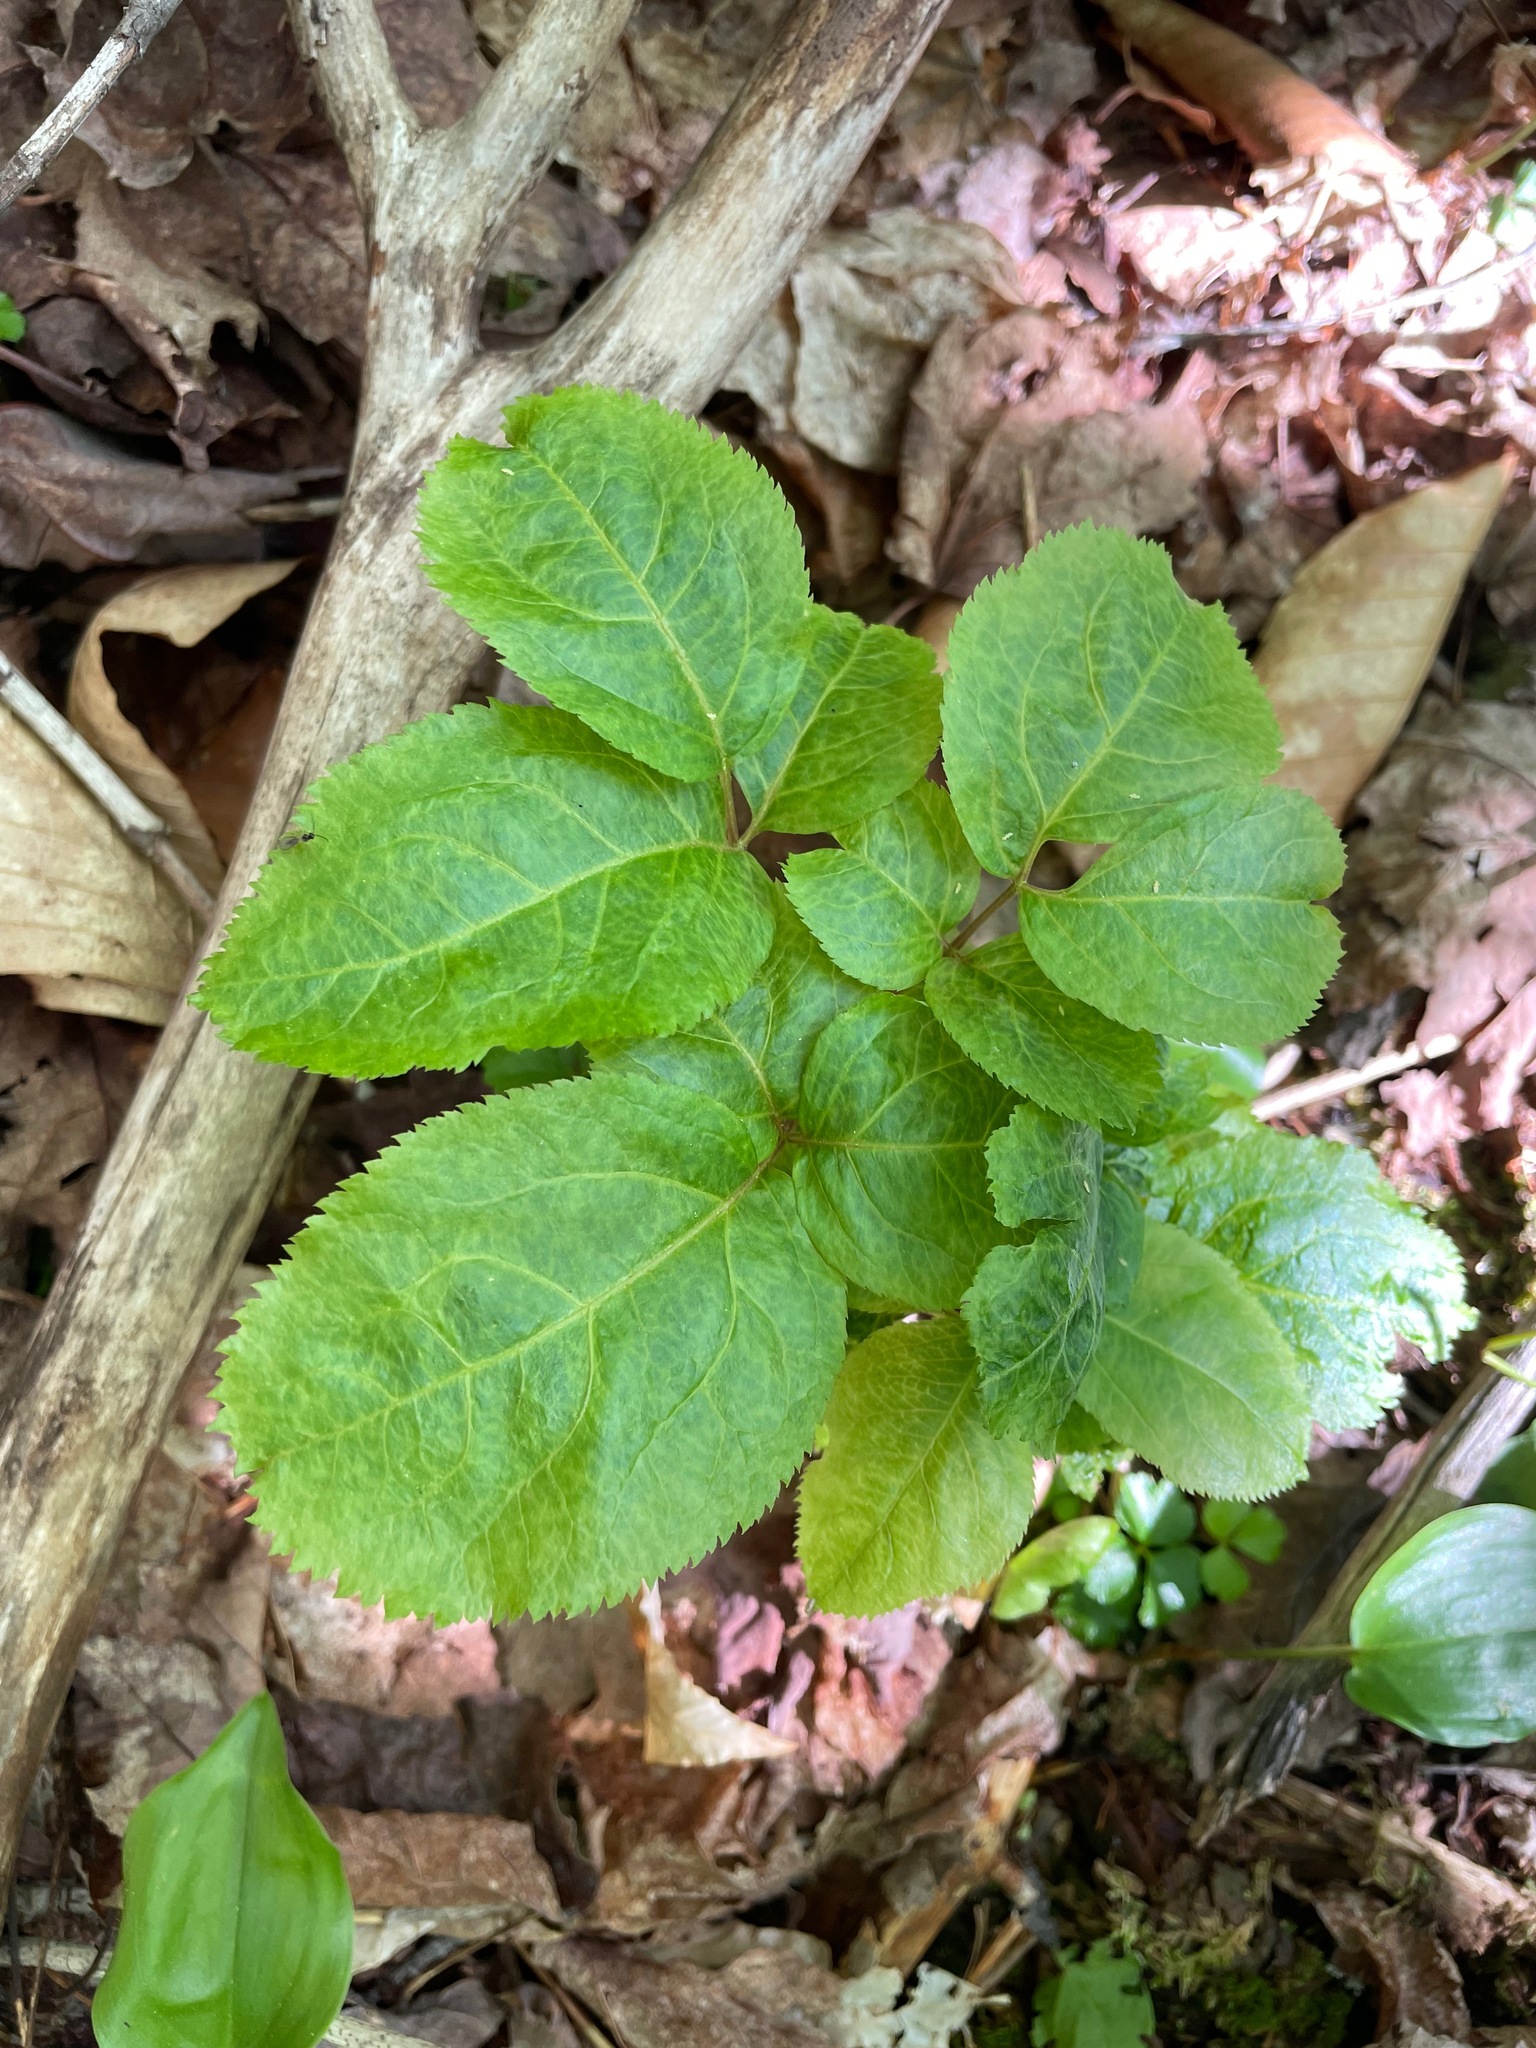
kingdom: Plantae
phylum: Tracheophyta
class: Magnoliopsida
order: Apiales
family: Araliaceae
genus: Aralia
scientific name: Aralia nudicaulis
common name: Wild sarsaparilla
